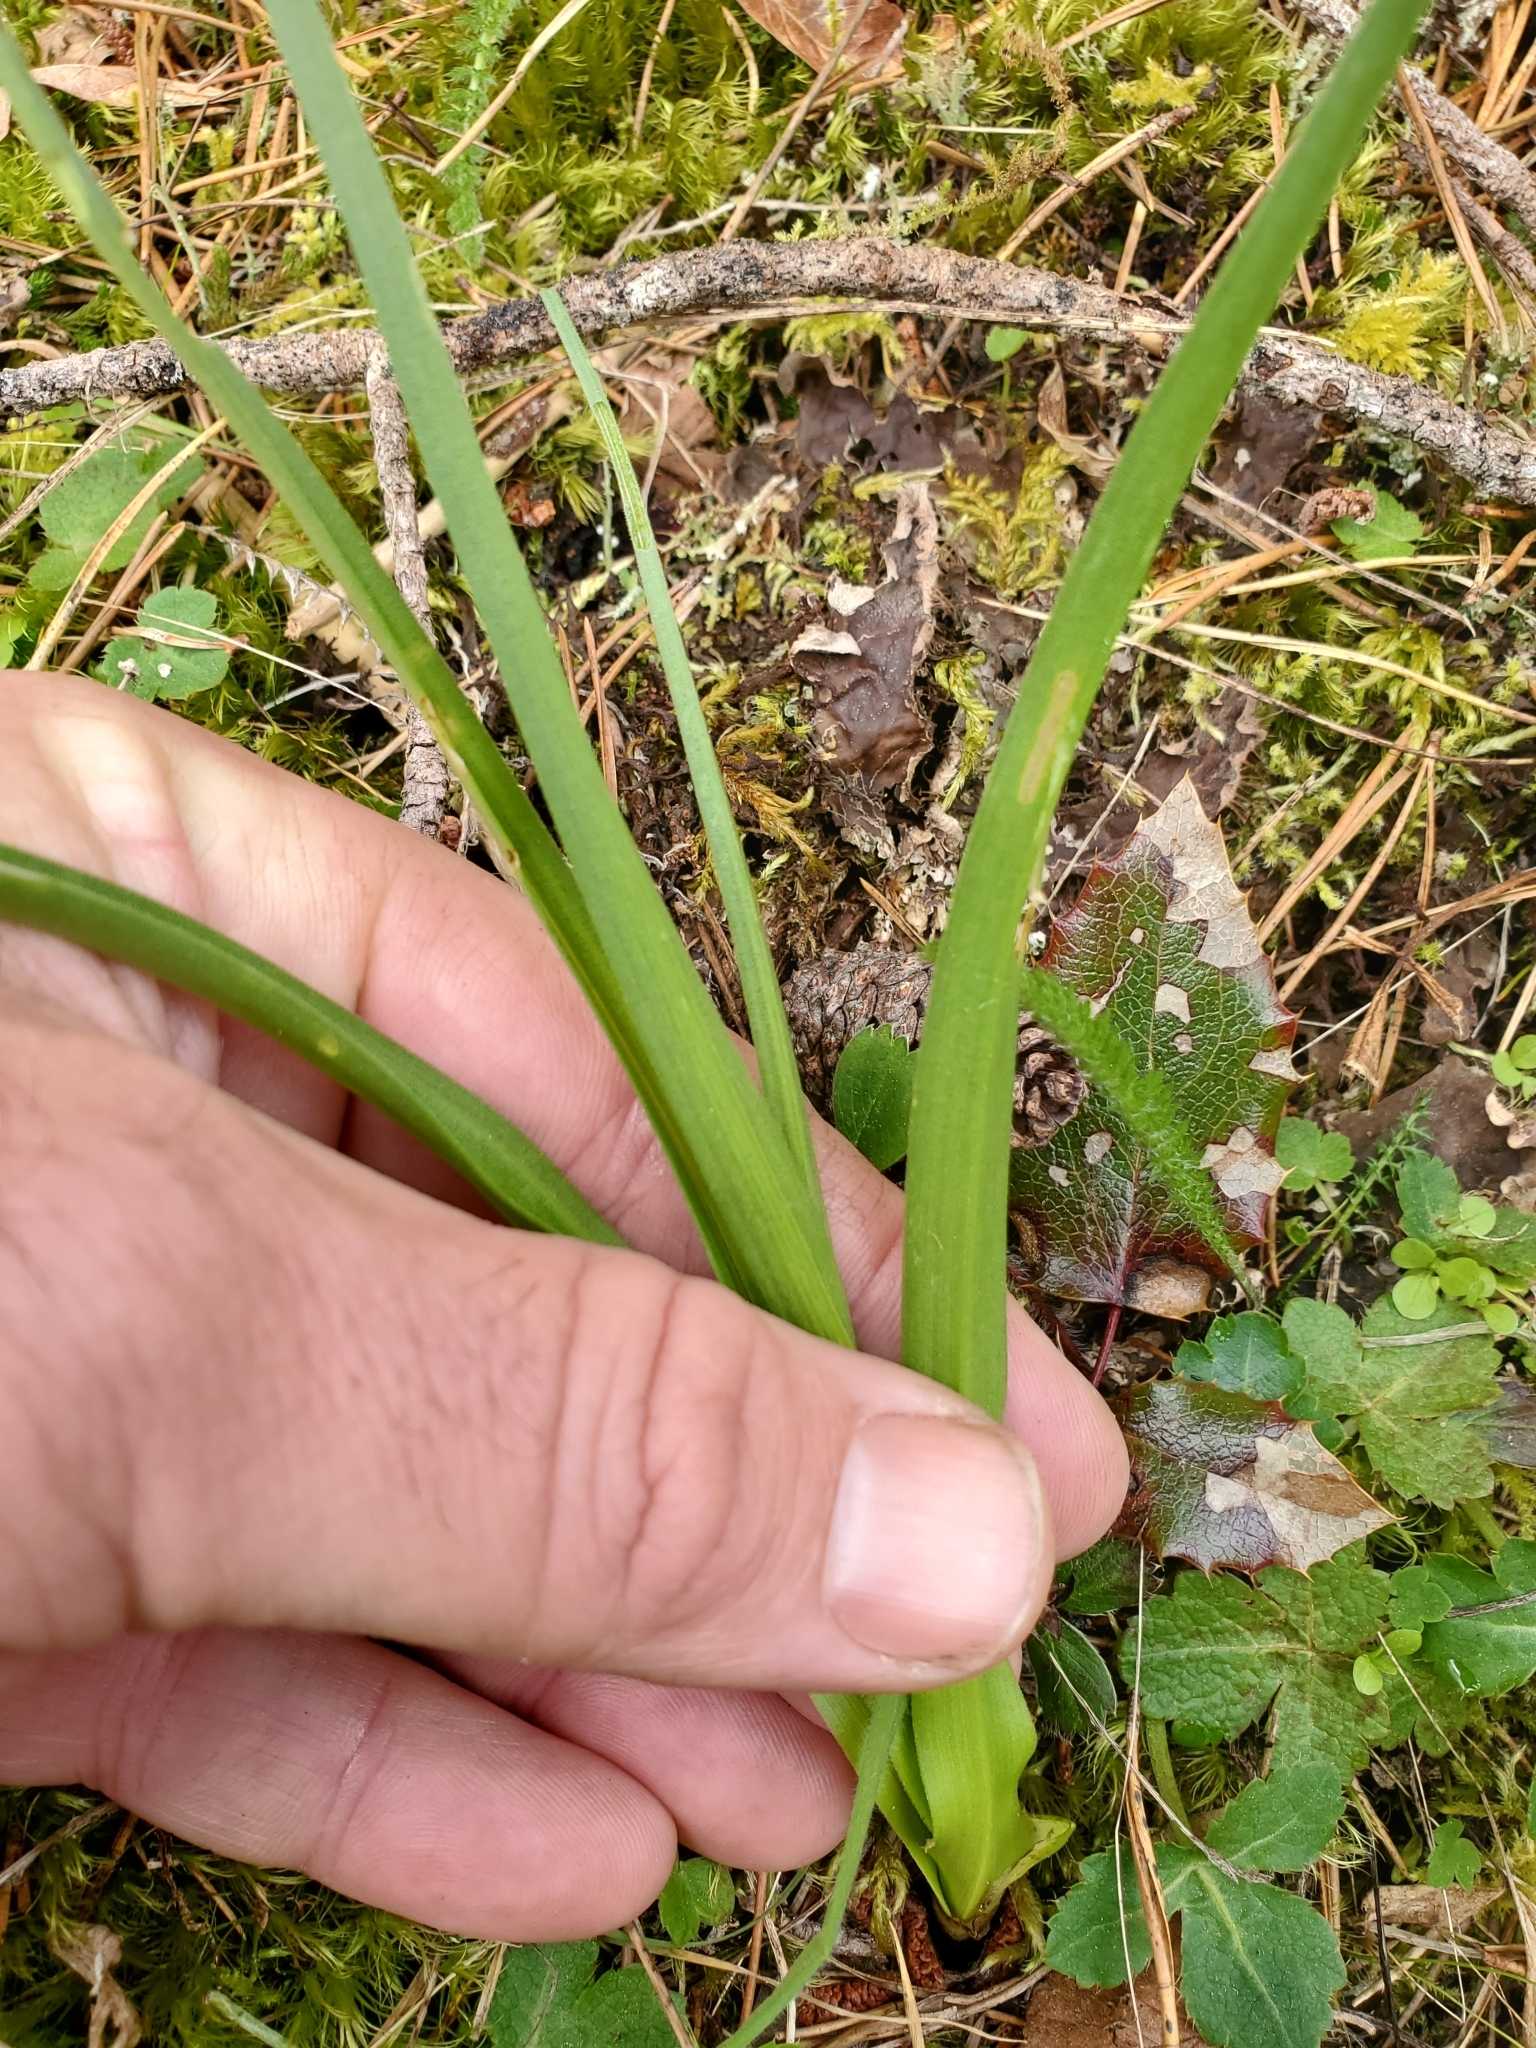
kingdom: Plantae
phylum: Tracheophyta
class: Liliopsida
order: Liliales
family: Melanthiaceae
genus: Toxicoscordion
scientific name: Toxicoscordion venenosum
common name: Meadow death camas
